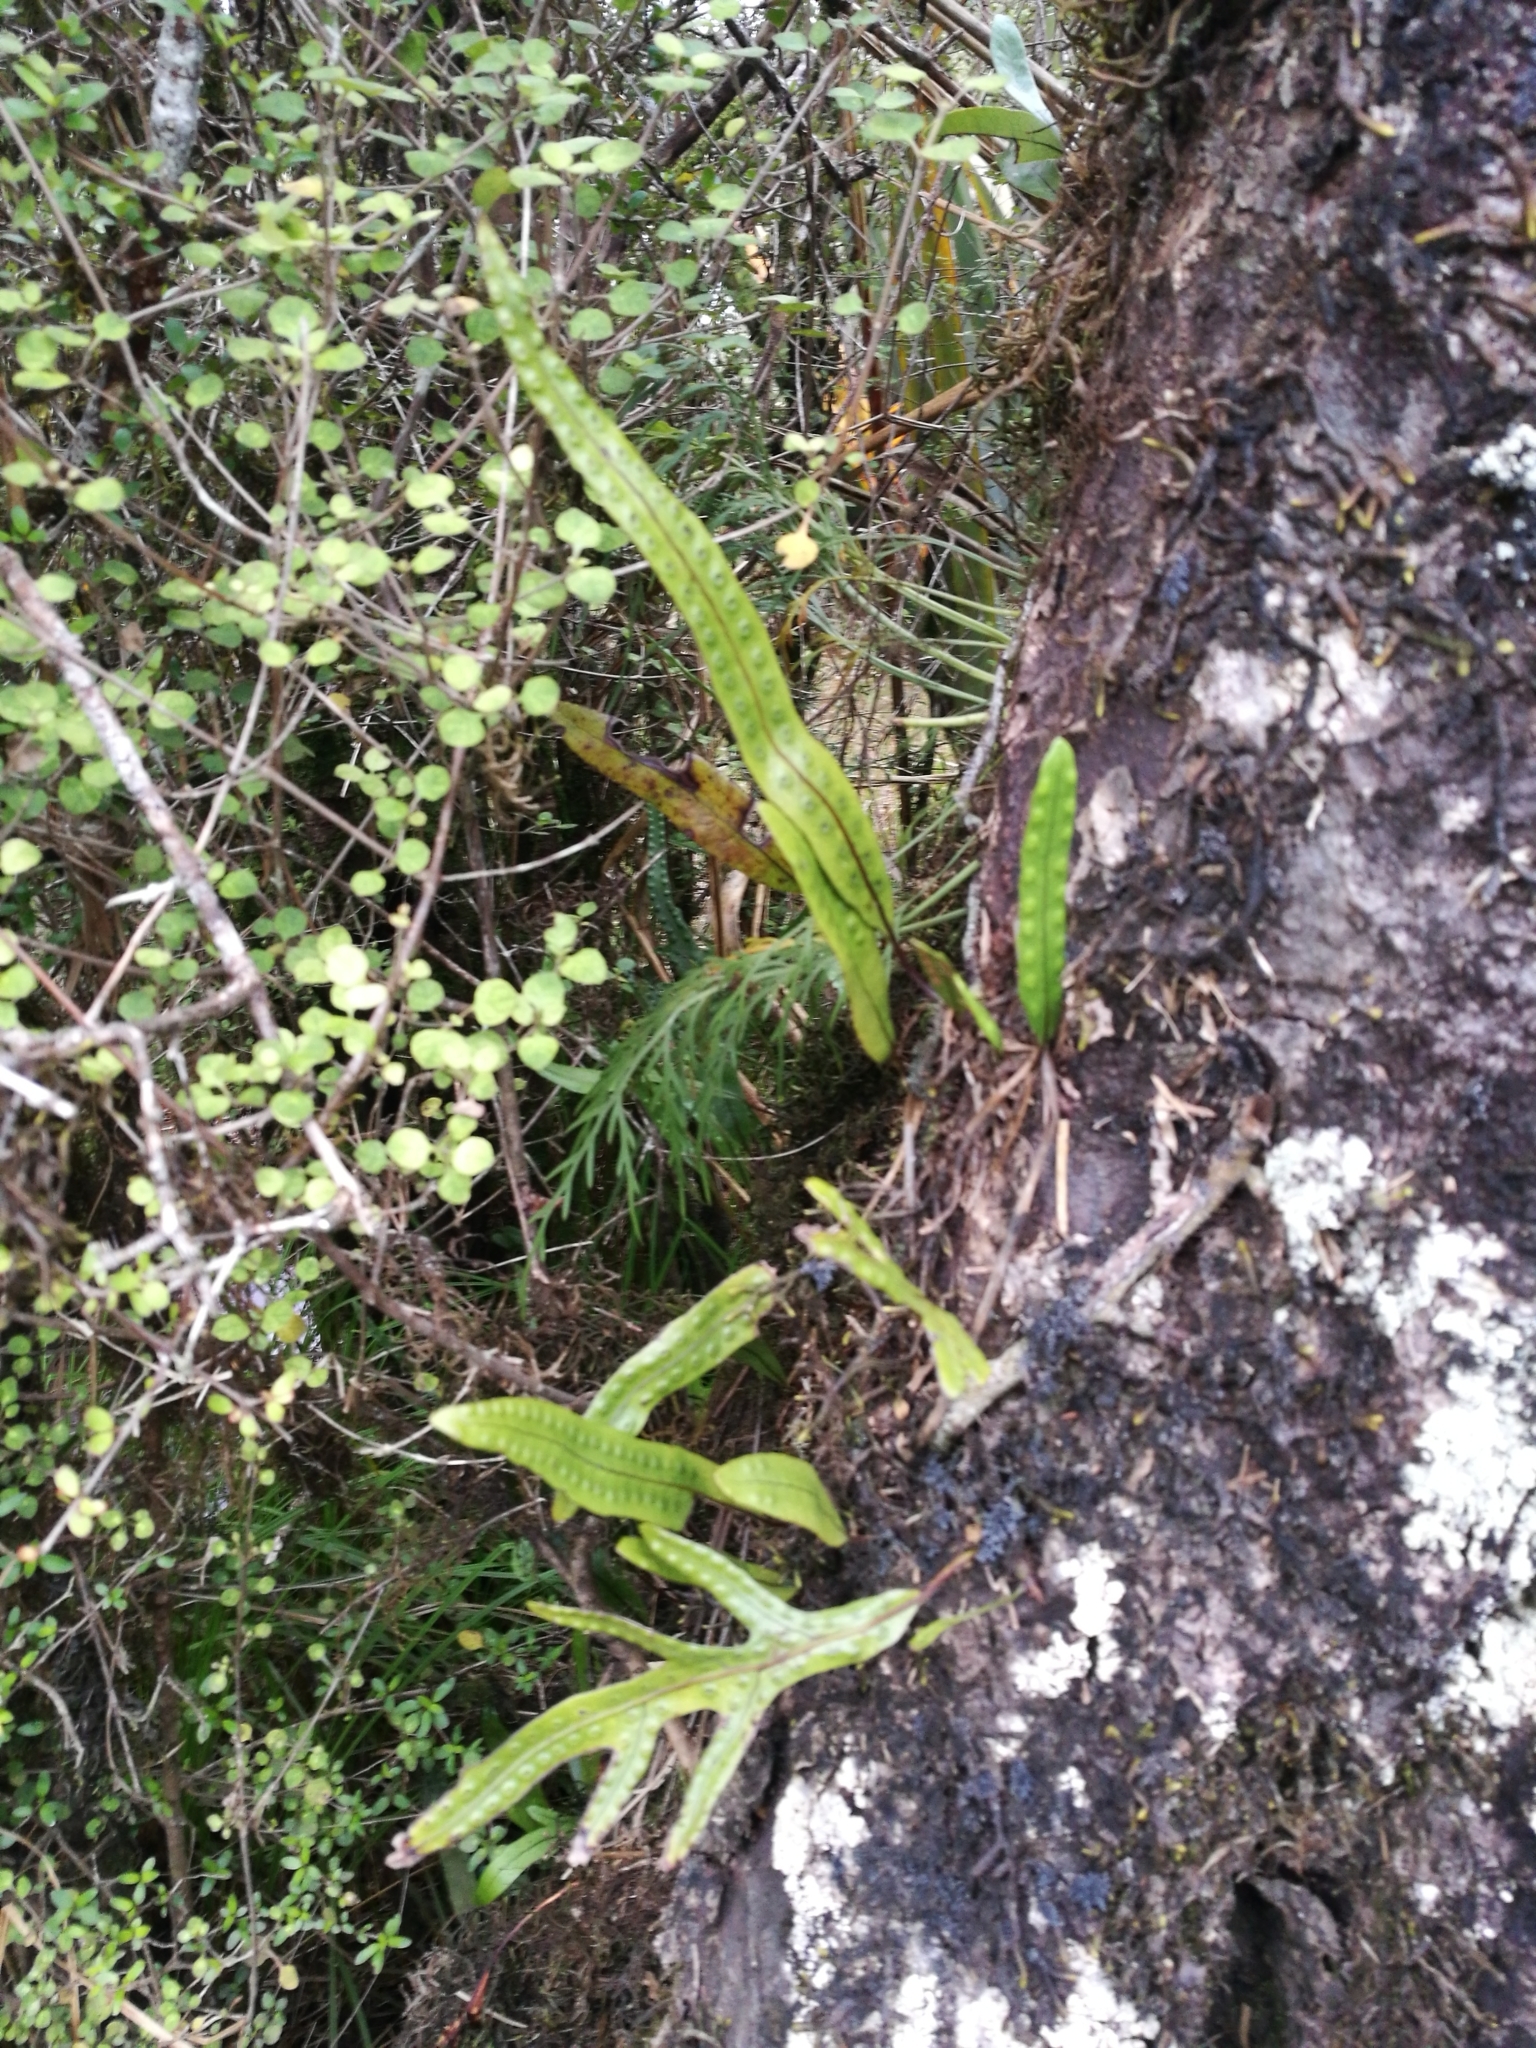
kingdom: Plantae
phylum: Tracheophyta
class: Polypodiopsida
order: Polypodiales
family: Polypodiaceae
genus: Lecanopteris
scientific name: Lecanopteris pustulata
